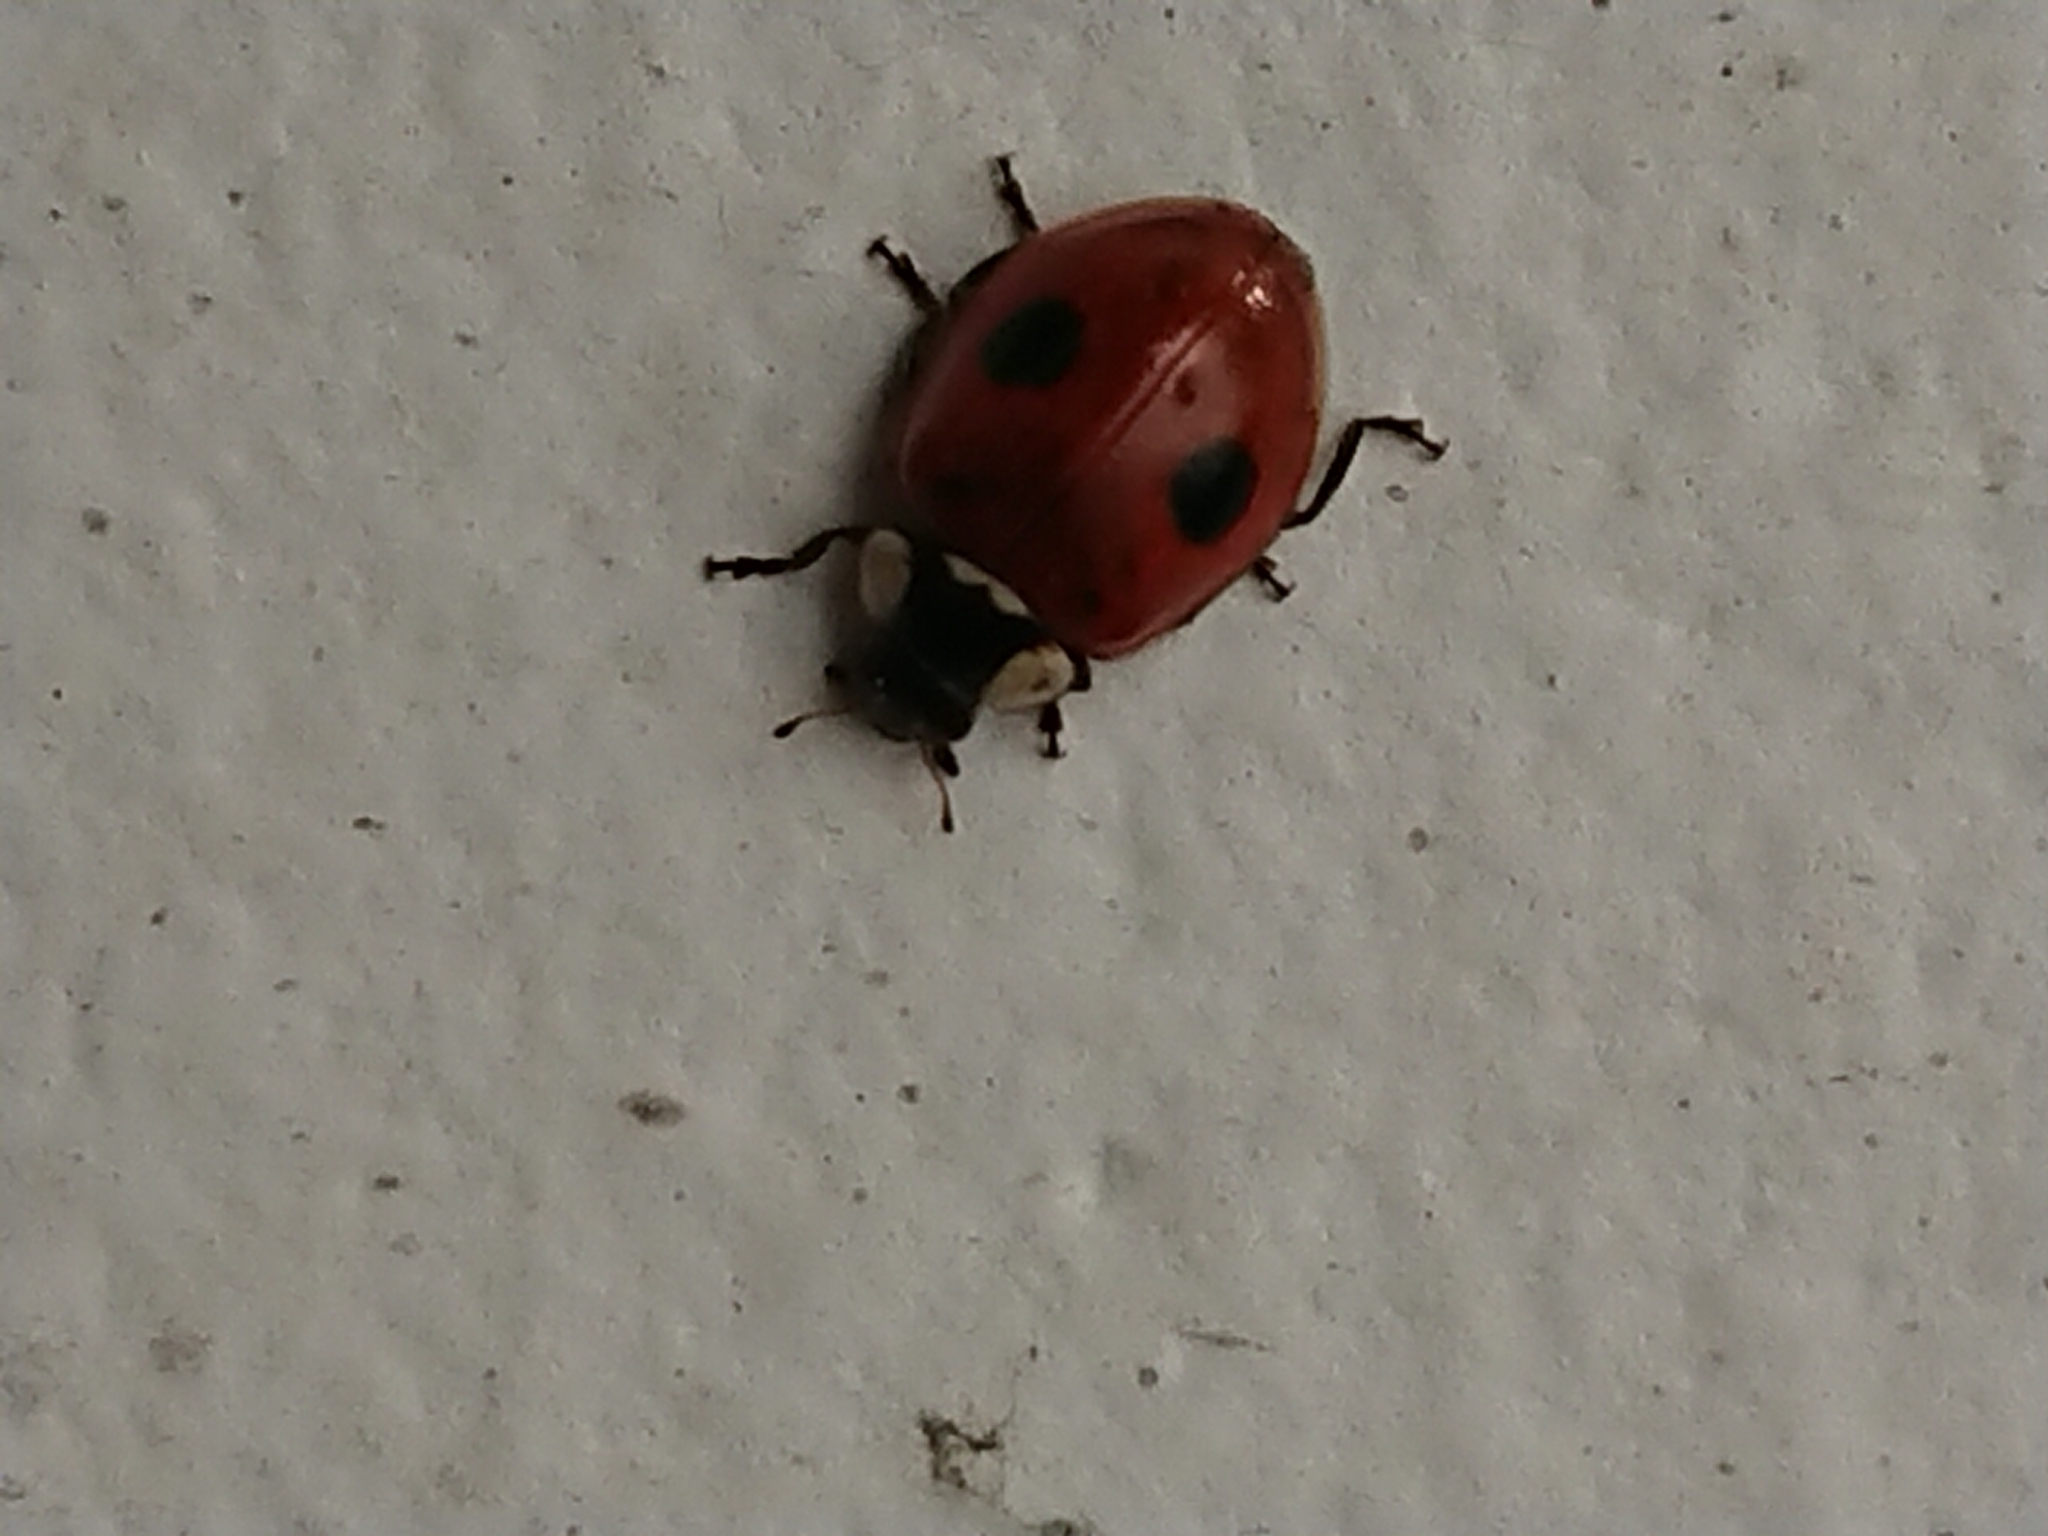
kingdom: Animalia
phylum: Arthropoda
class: Insecta
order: Coleoptera
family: Coccinellidae
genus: Adalia
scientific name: Adalia bipunctata
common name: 2-spot ladybird
